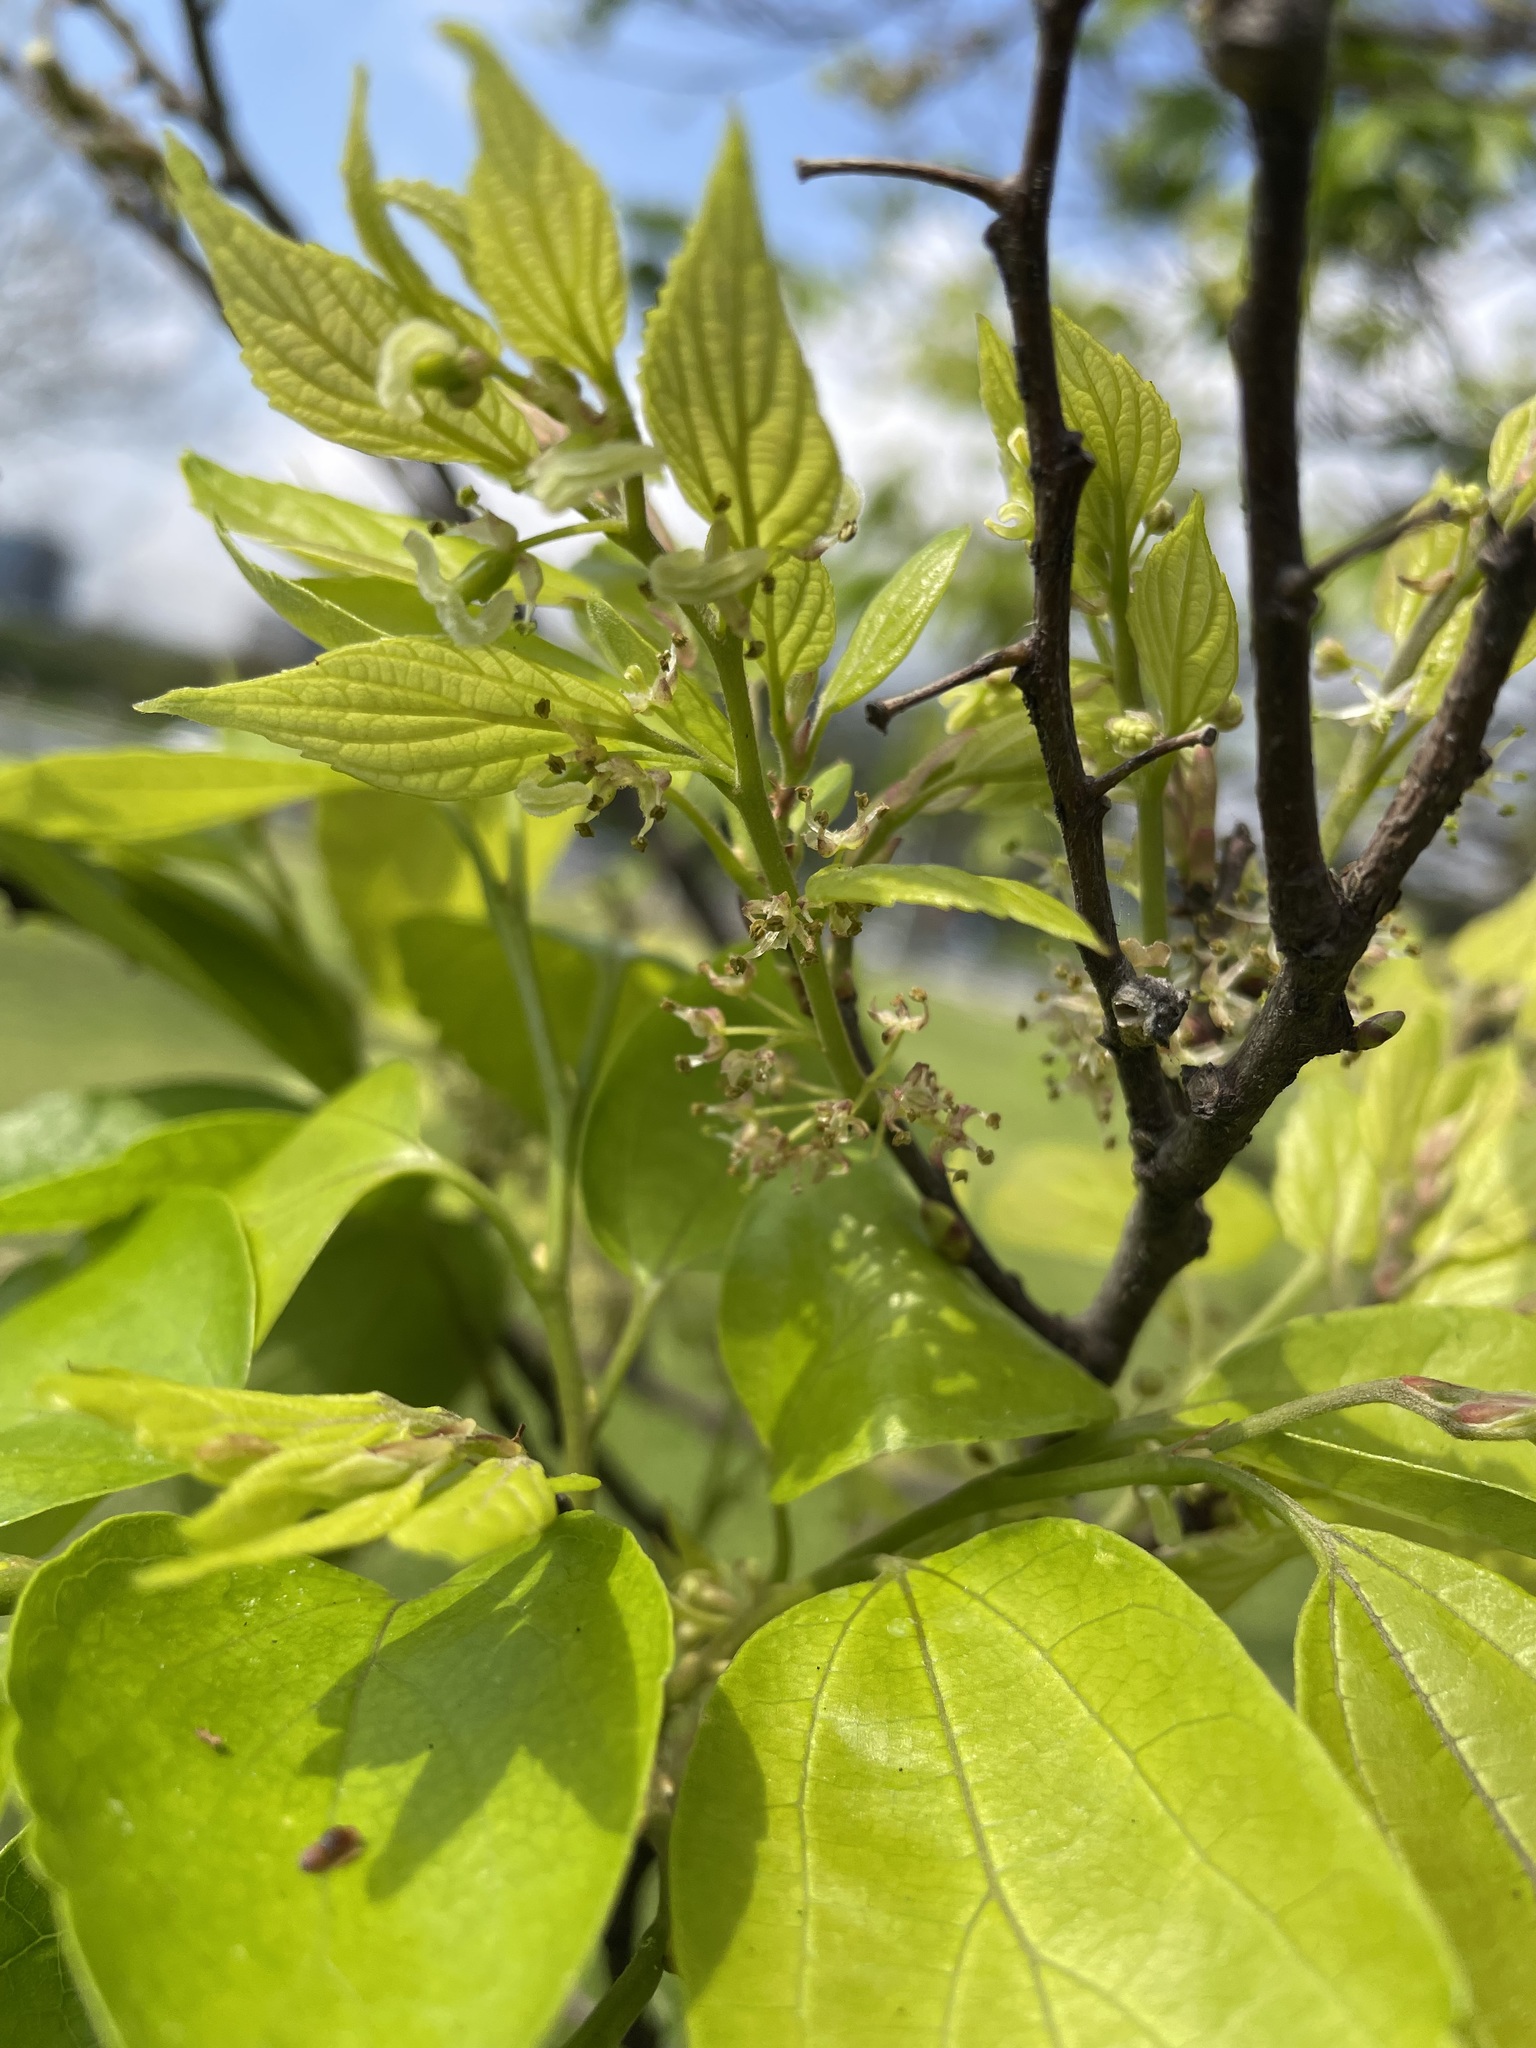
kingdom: Plantae
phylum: Tracheophyta
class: Magnoliopsida
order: Rosales
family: Cannabaceae
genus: Celtis
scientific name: Celtis sinensis
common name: Chinese hackberry
